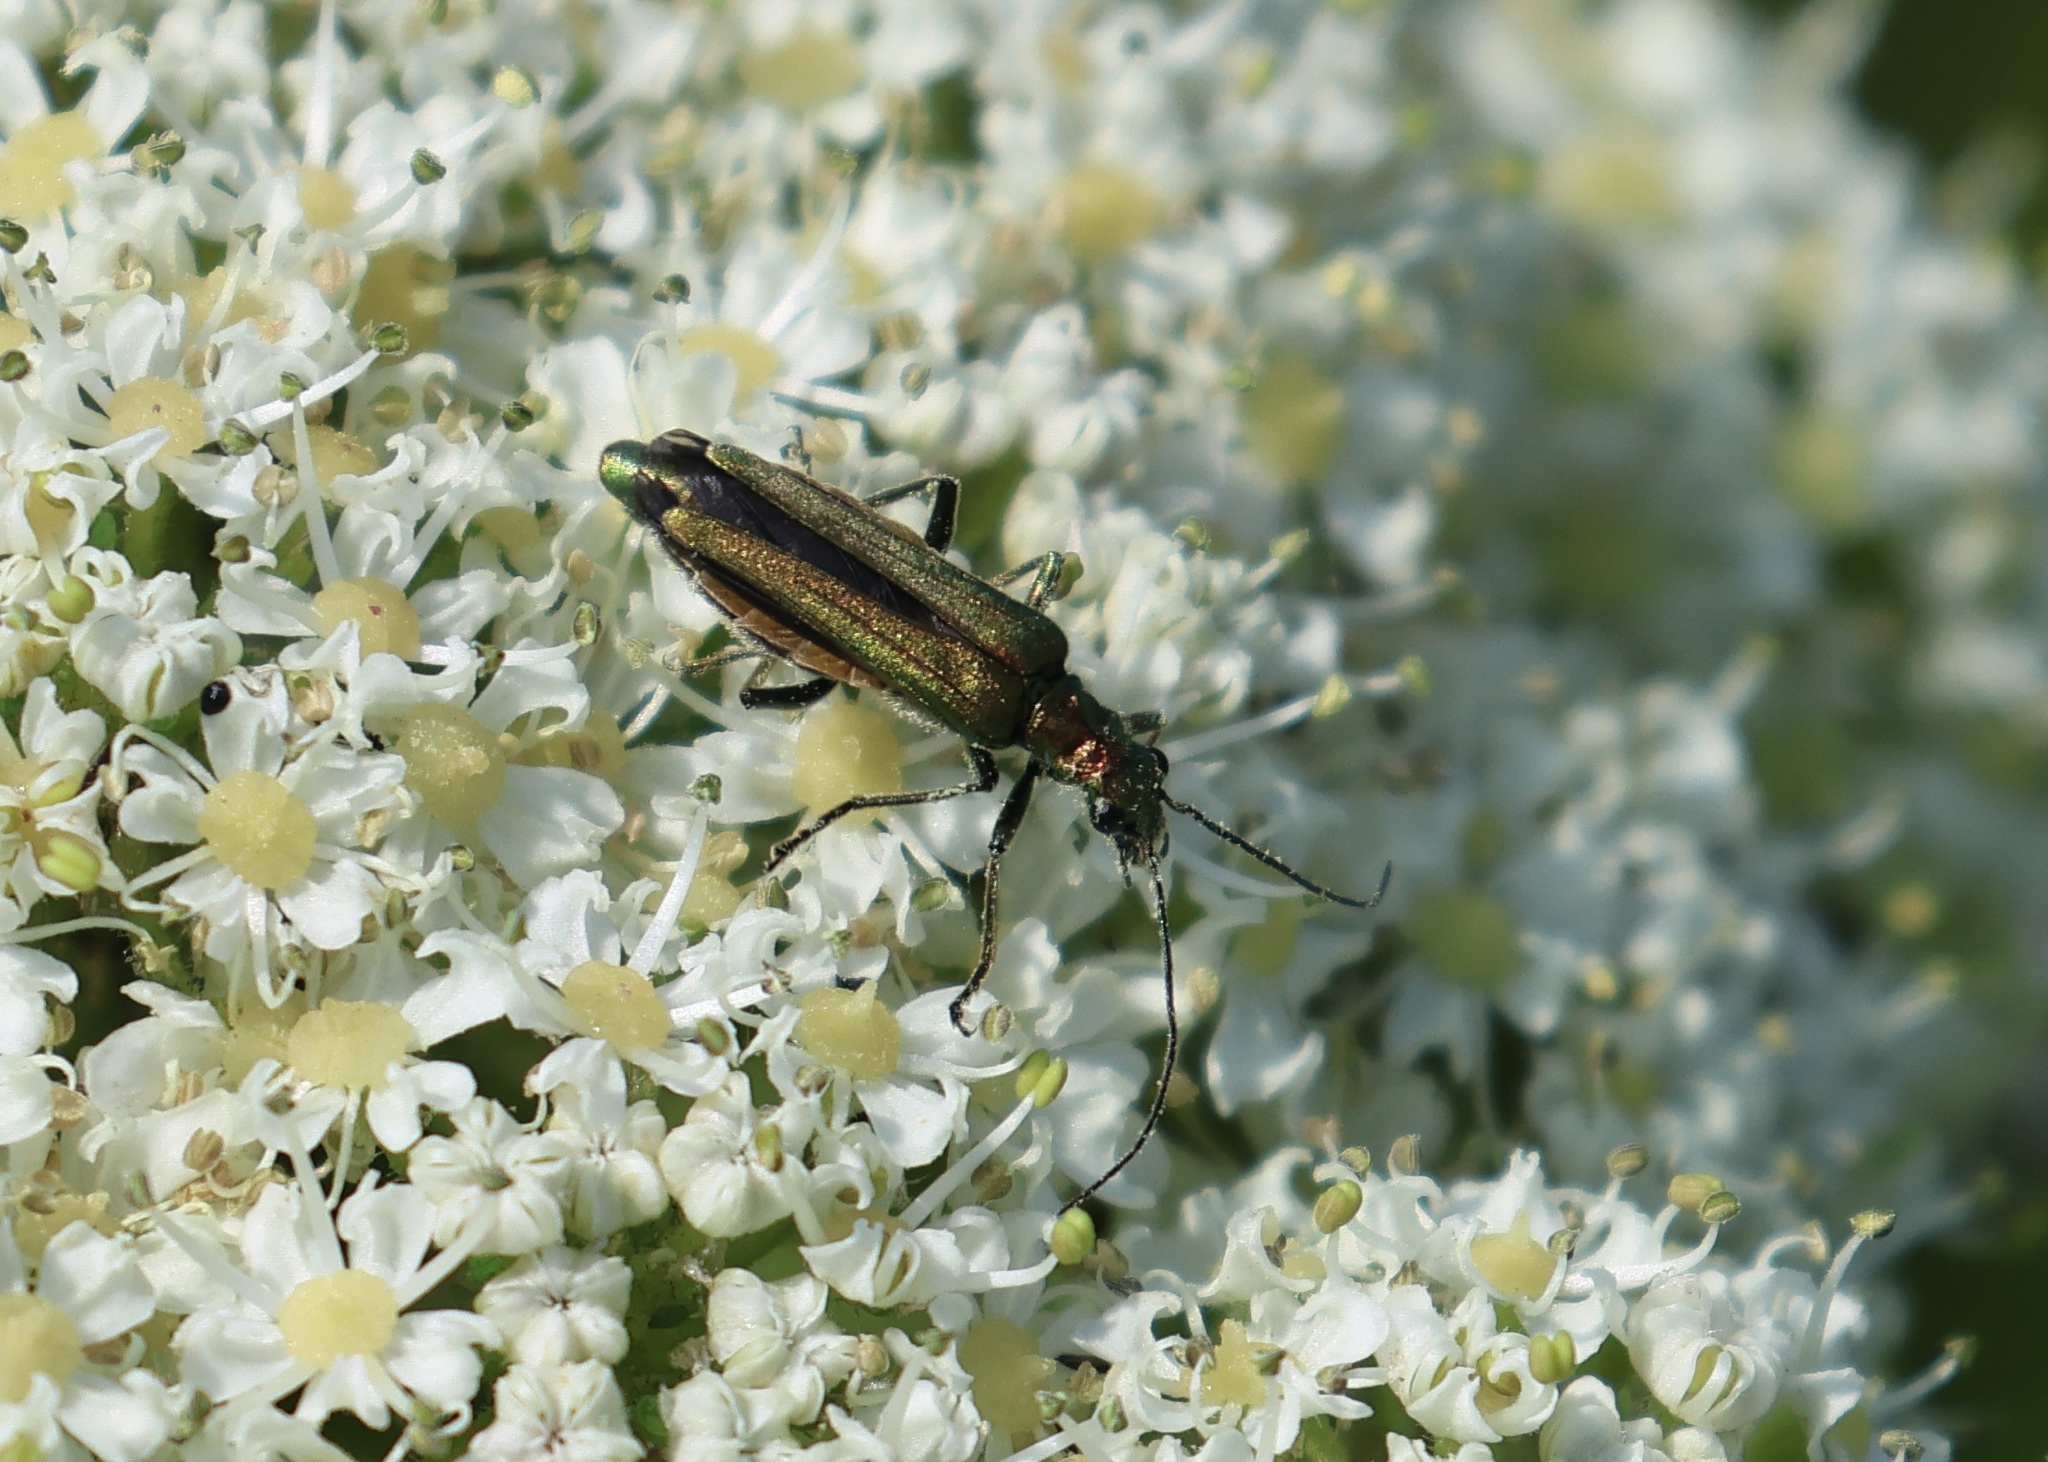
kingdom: Animalia
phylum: Arthropoda
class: Insecta
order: Coleoptera
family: Oedemeridae
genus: Oedemera
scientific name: Oedemera nobilis
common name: Swollen-thighed beetle
